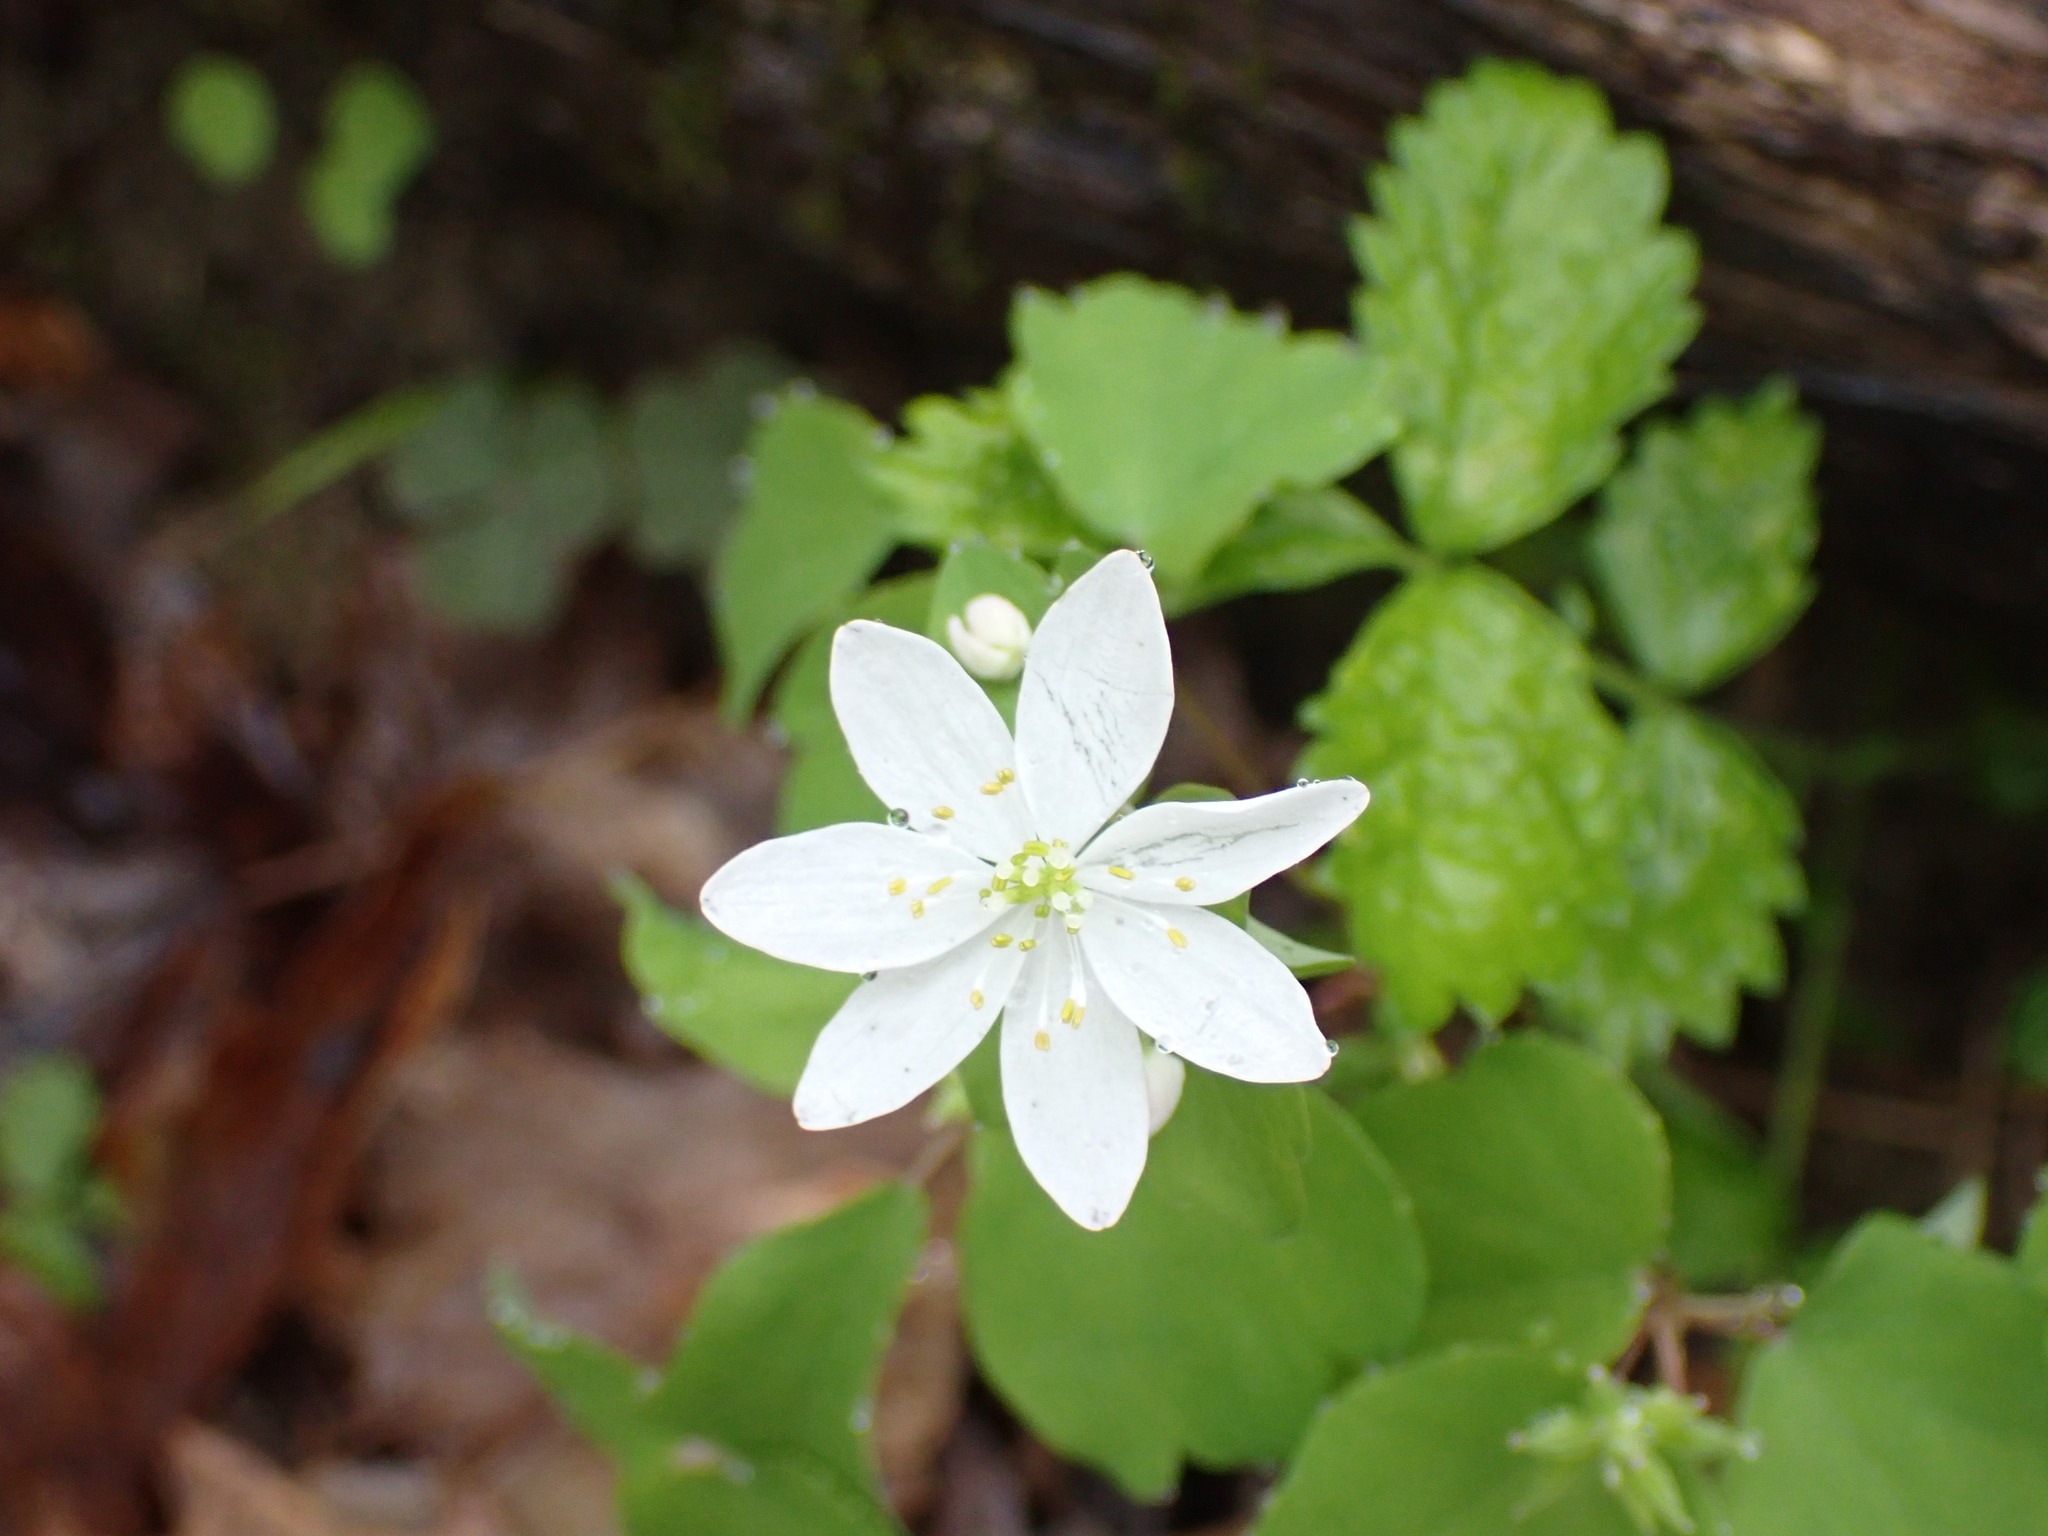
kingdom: Plantae
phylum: Tracheophyta
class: Magnoliopsida
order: Ranunculales
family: Ranunculaceae
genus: Thalictrum
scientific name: Thalictrum thalictroides
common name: Rue-anemone
